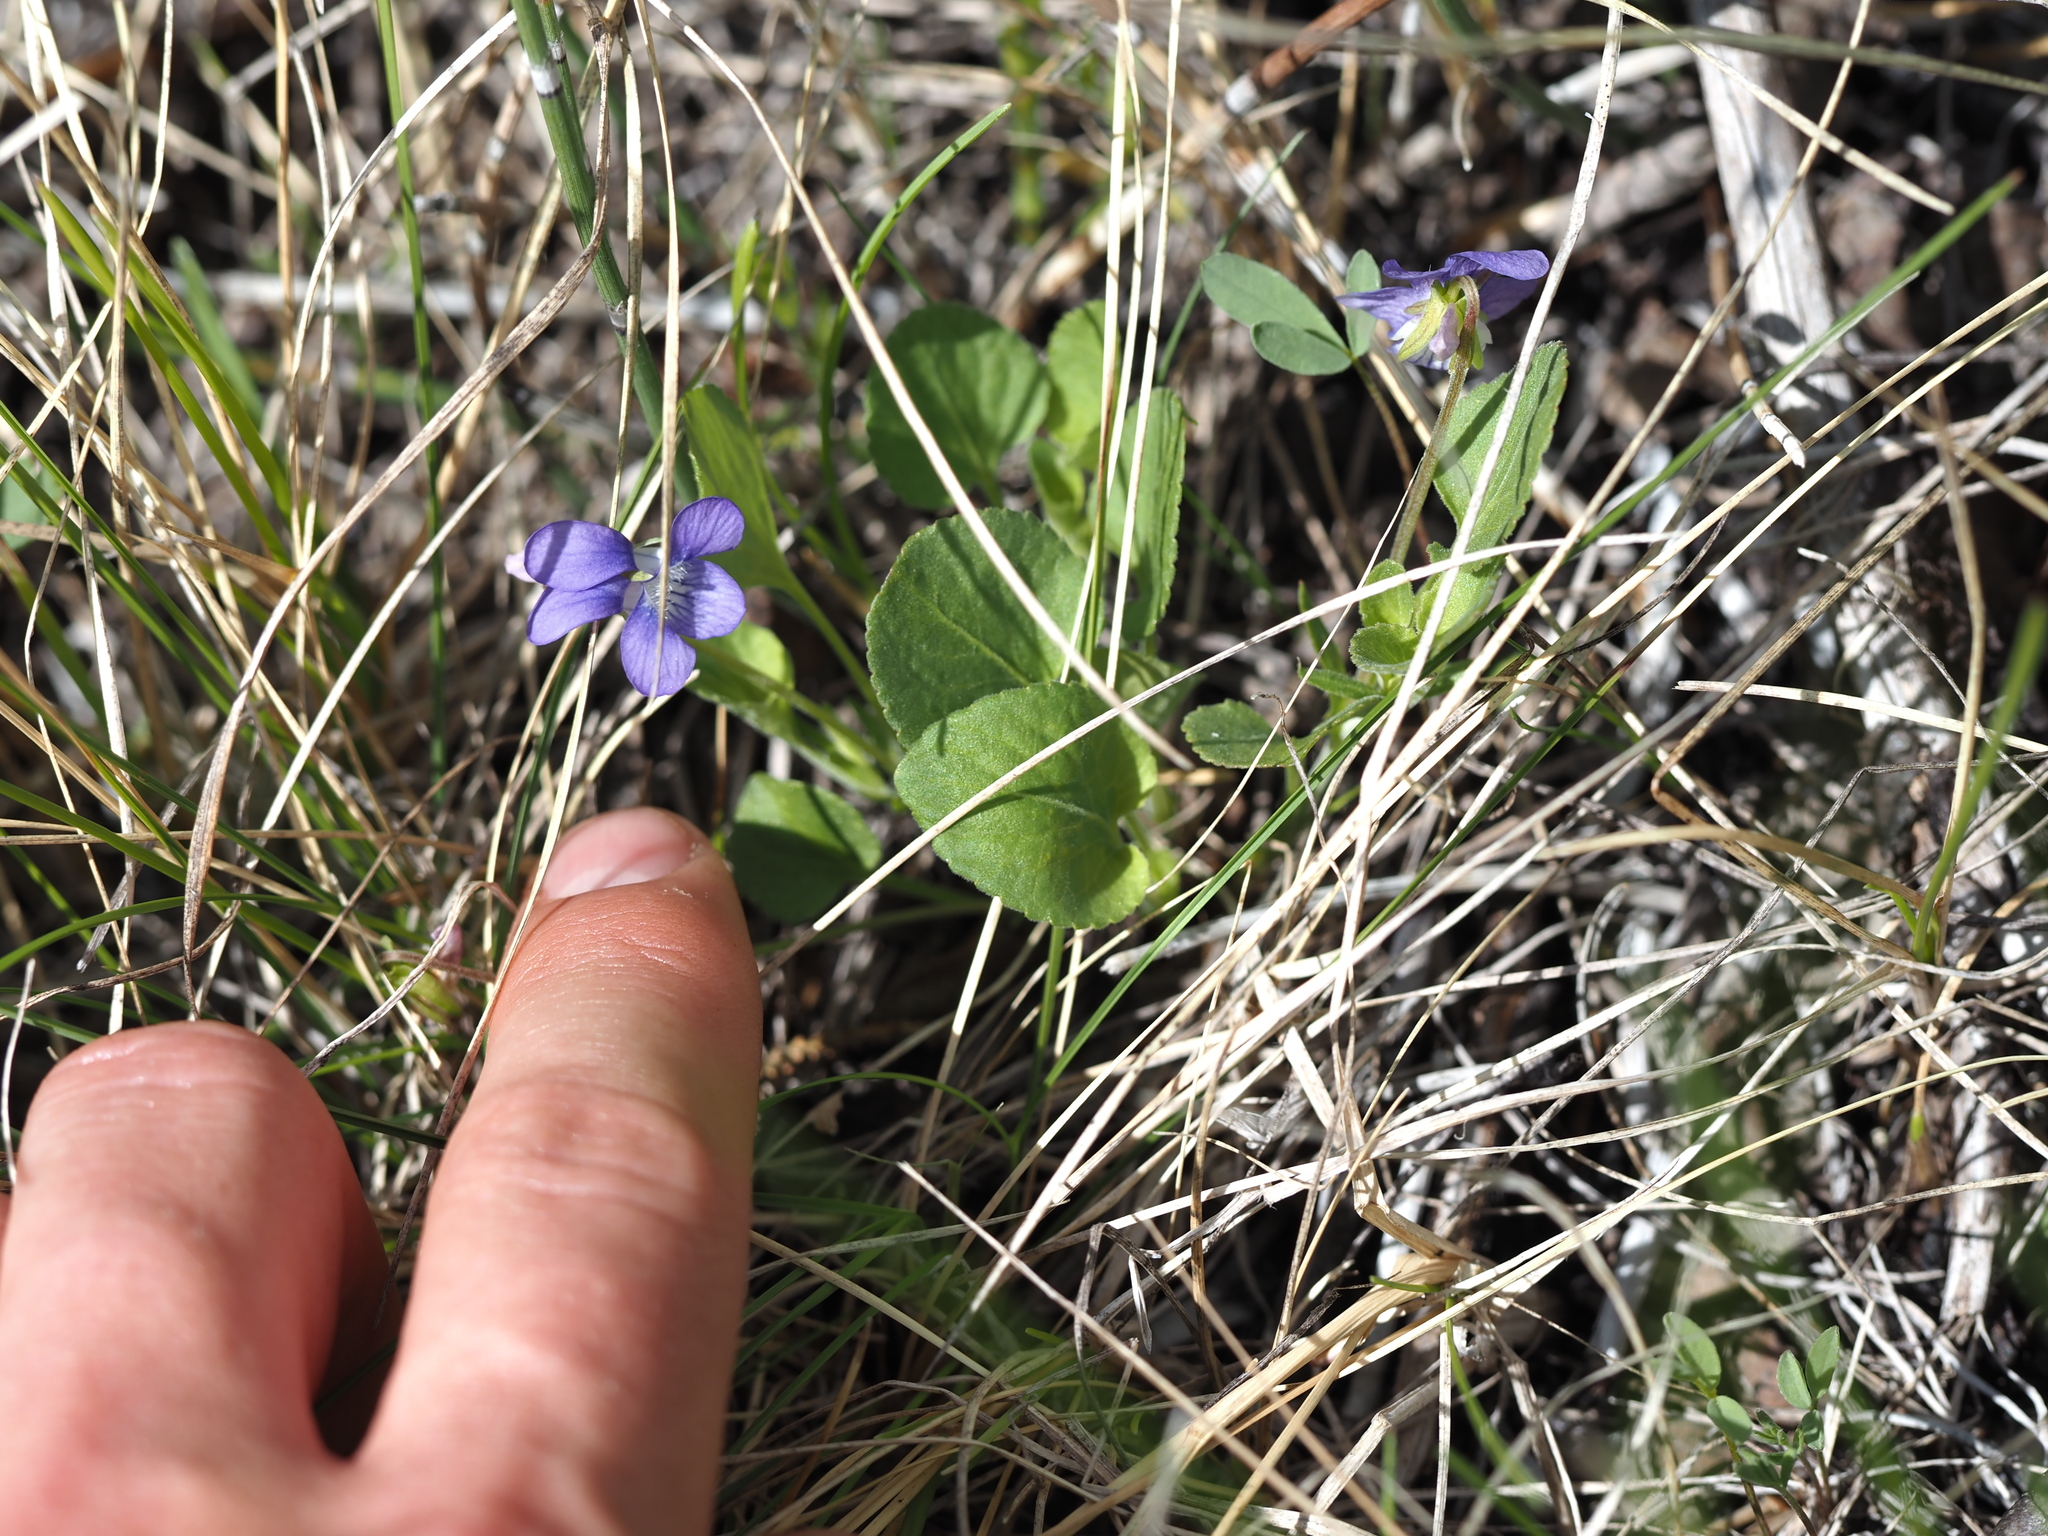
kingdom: Plantae
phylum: Tracheophyta
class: Magnoliopsida
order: Malpighiales
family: Violaceae
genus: Viola
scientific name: Viola adunca
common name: Sand violet
